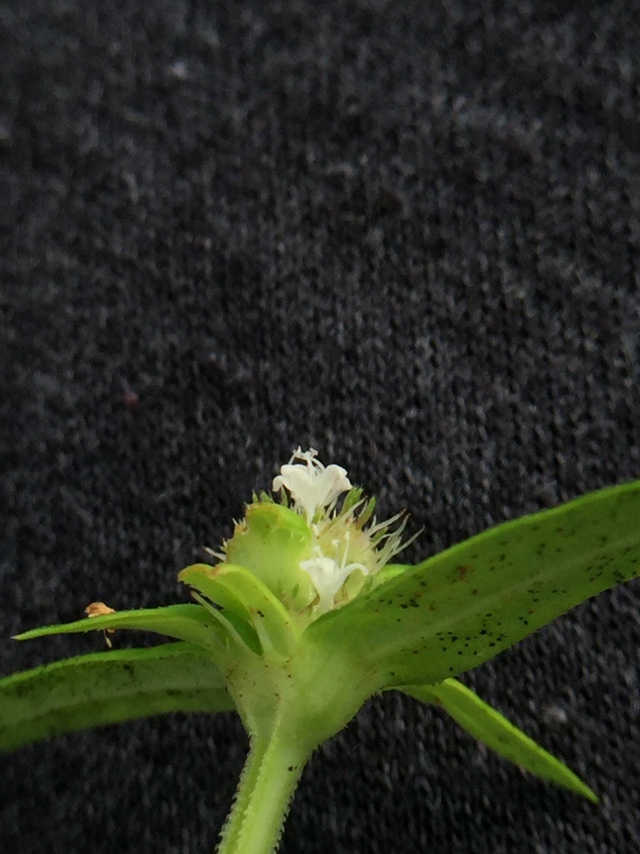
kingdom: Plantae
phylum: Tracheophyta
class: Magnoliopsida
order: Gentianales
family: Rubiaceae
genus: Spermacoce
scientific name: Spermacoce pusilla
